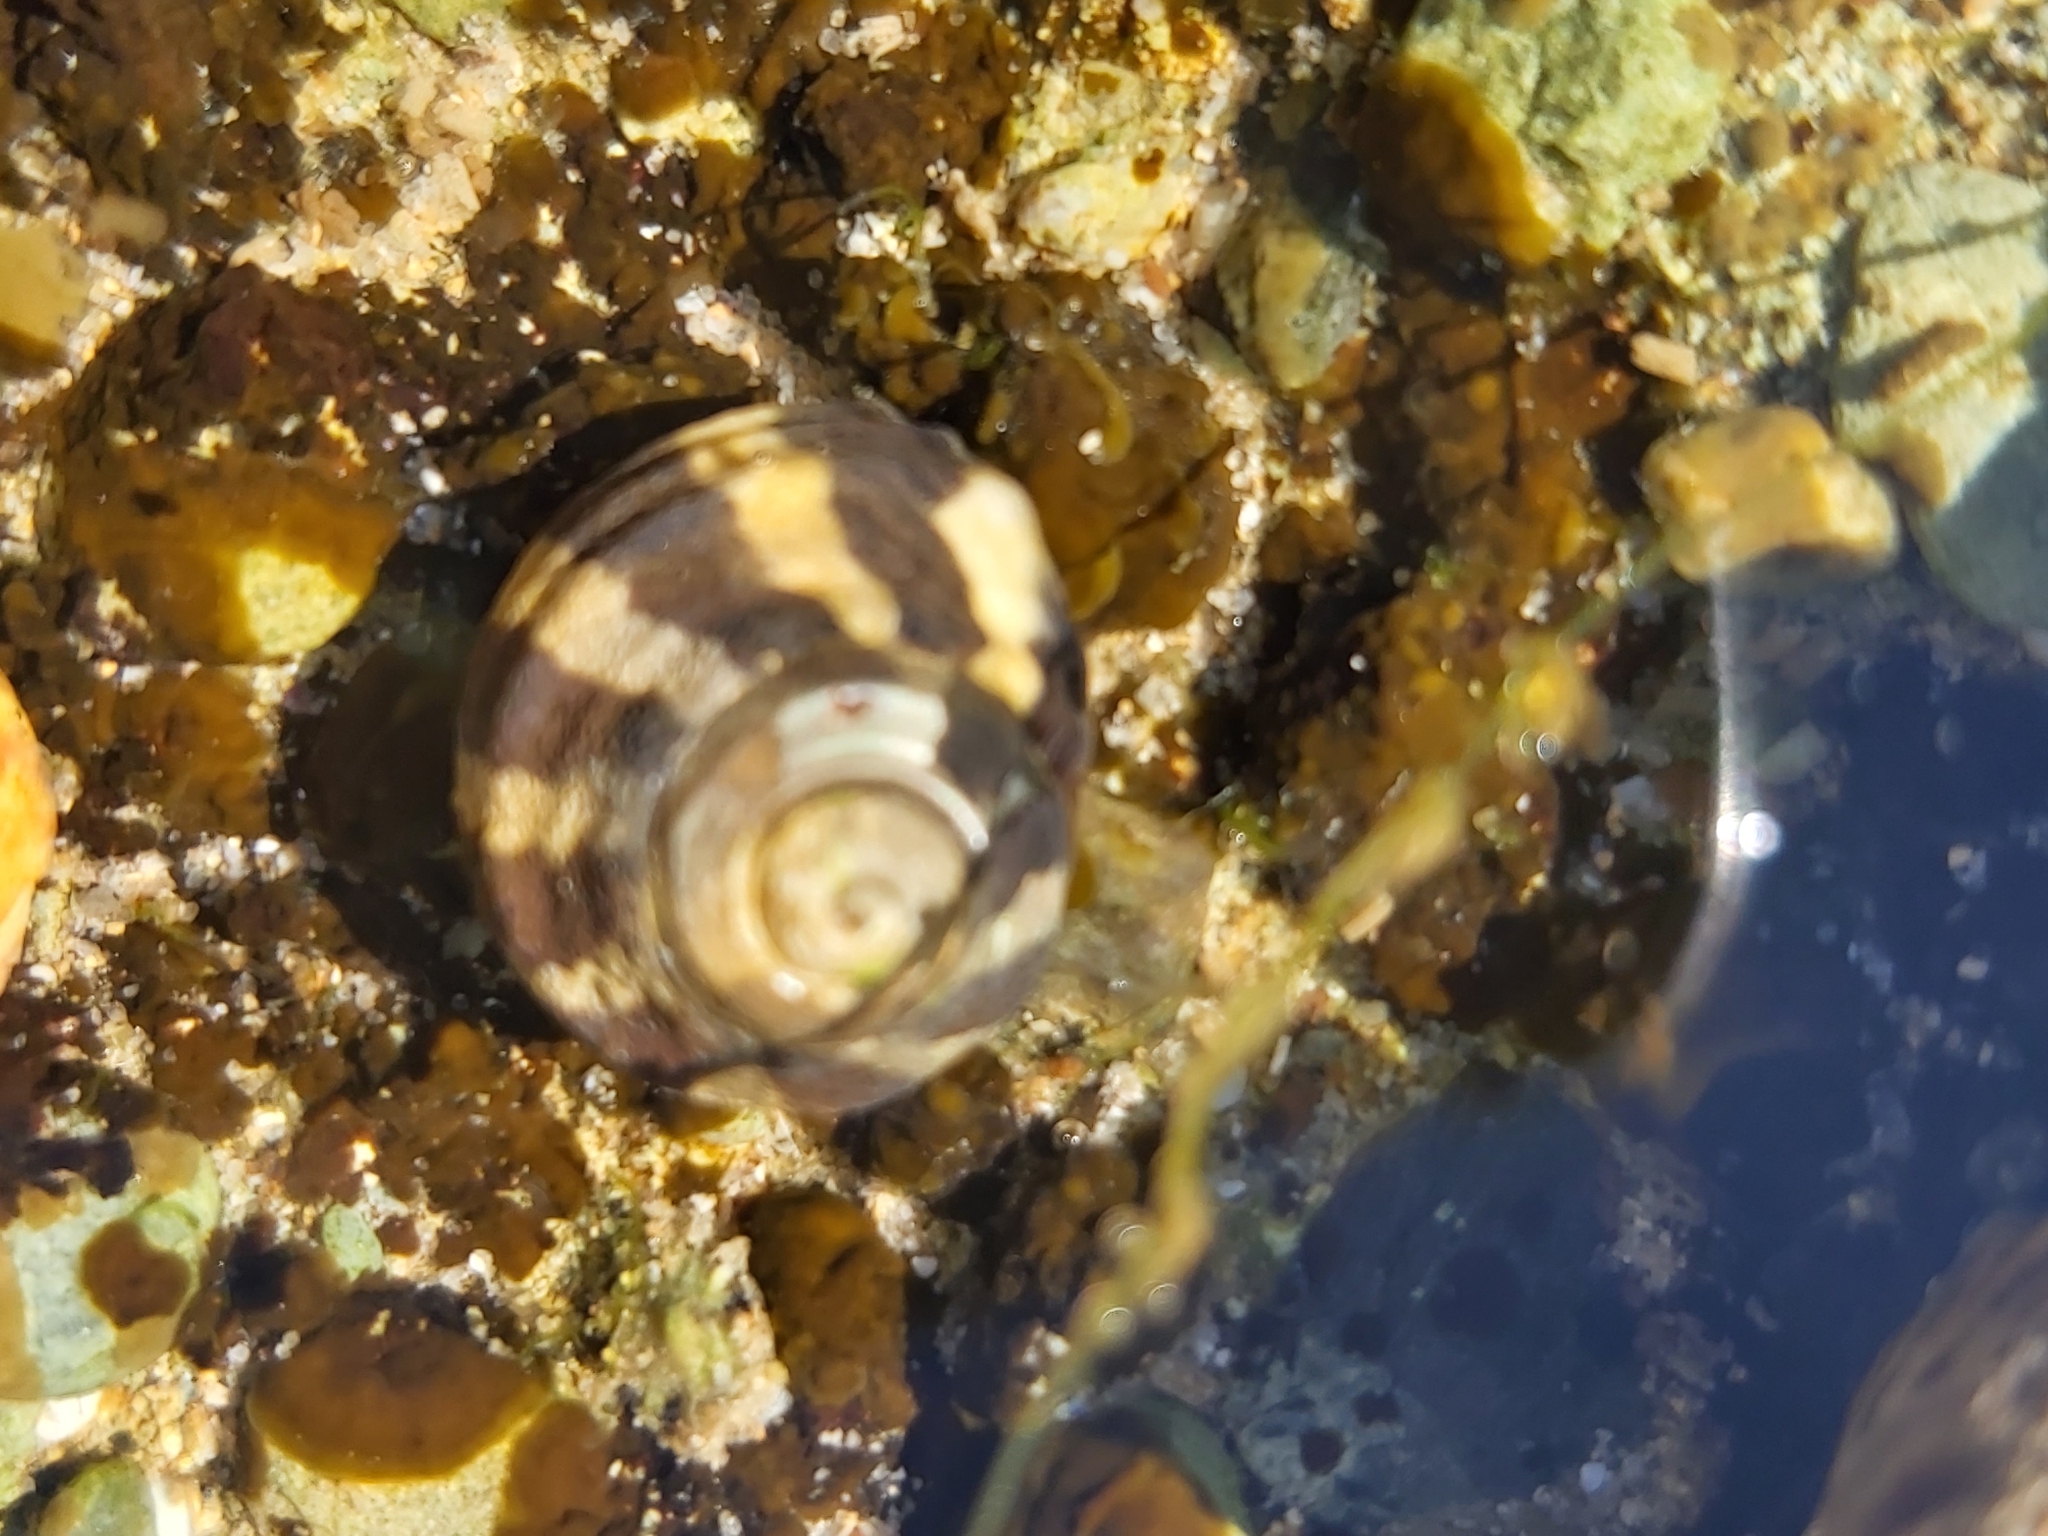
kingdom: Animalia
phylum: Mollusca
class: Gastropoda
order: Trochida
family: Trochidae
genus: Austrocochlea
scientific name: Austrocochlea porcata
